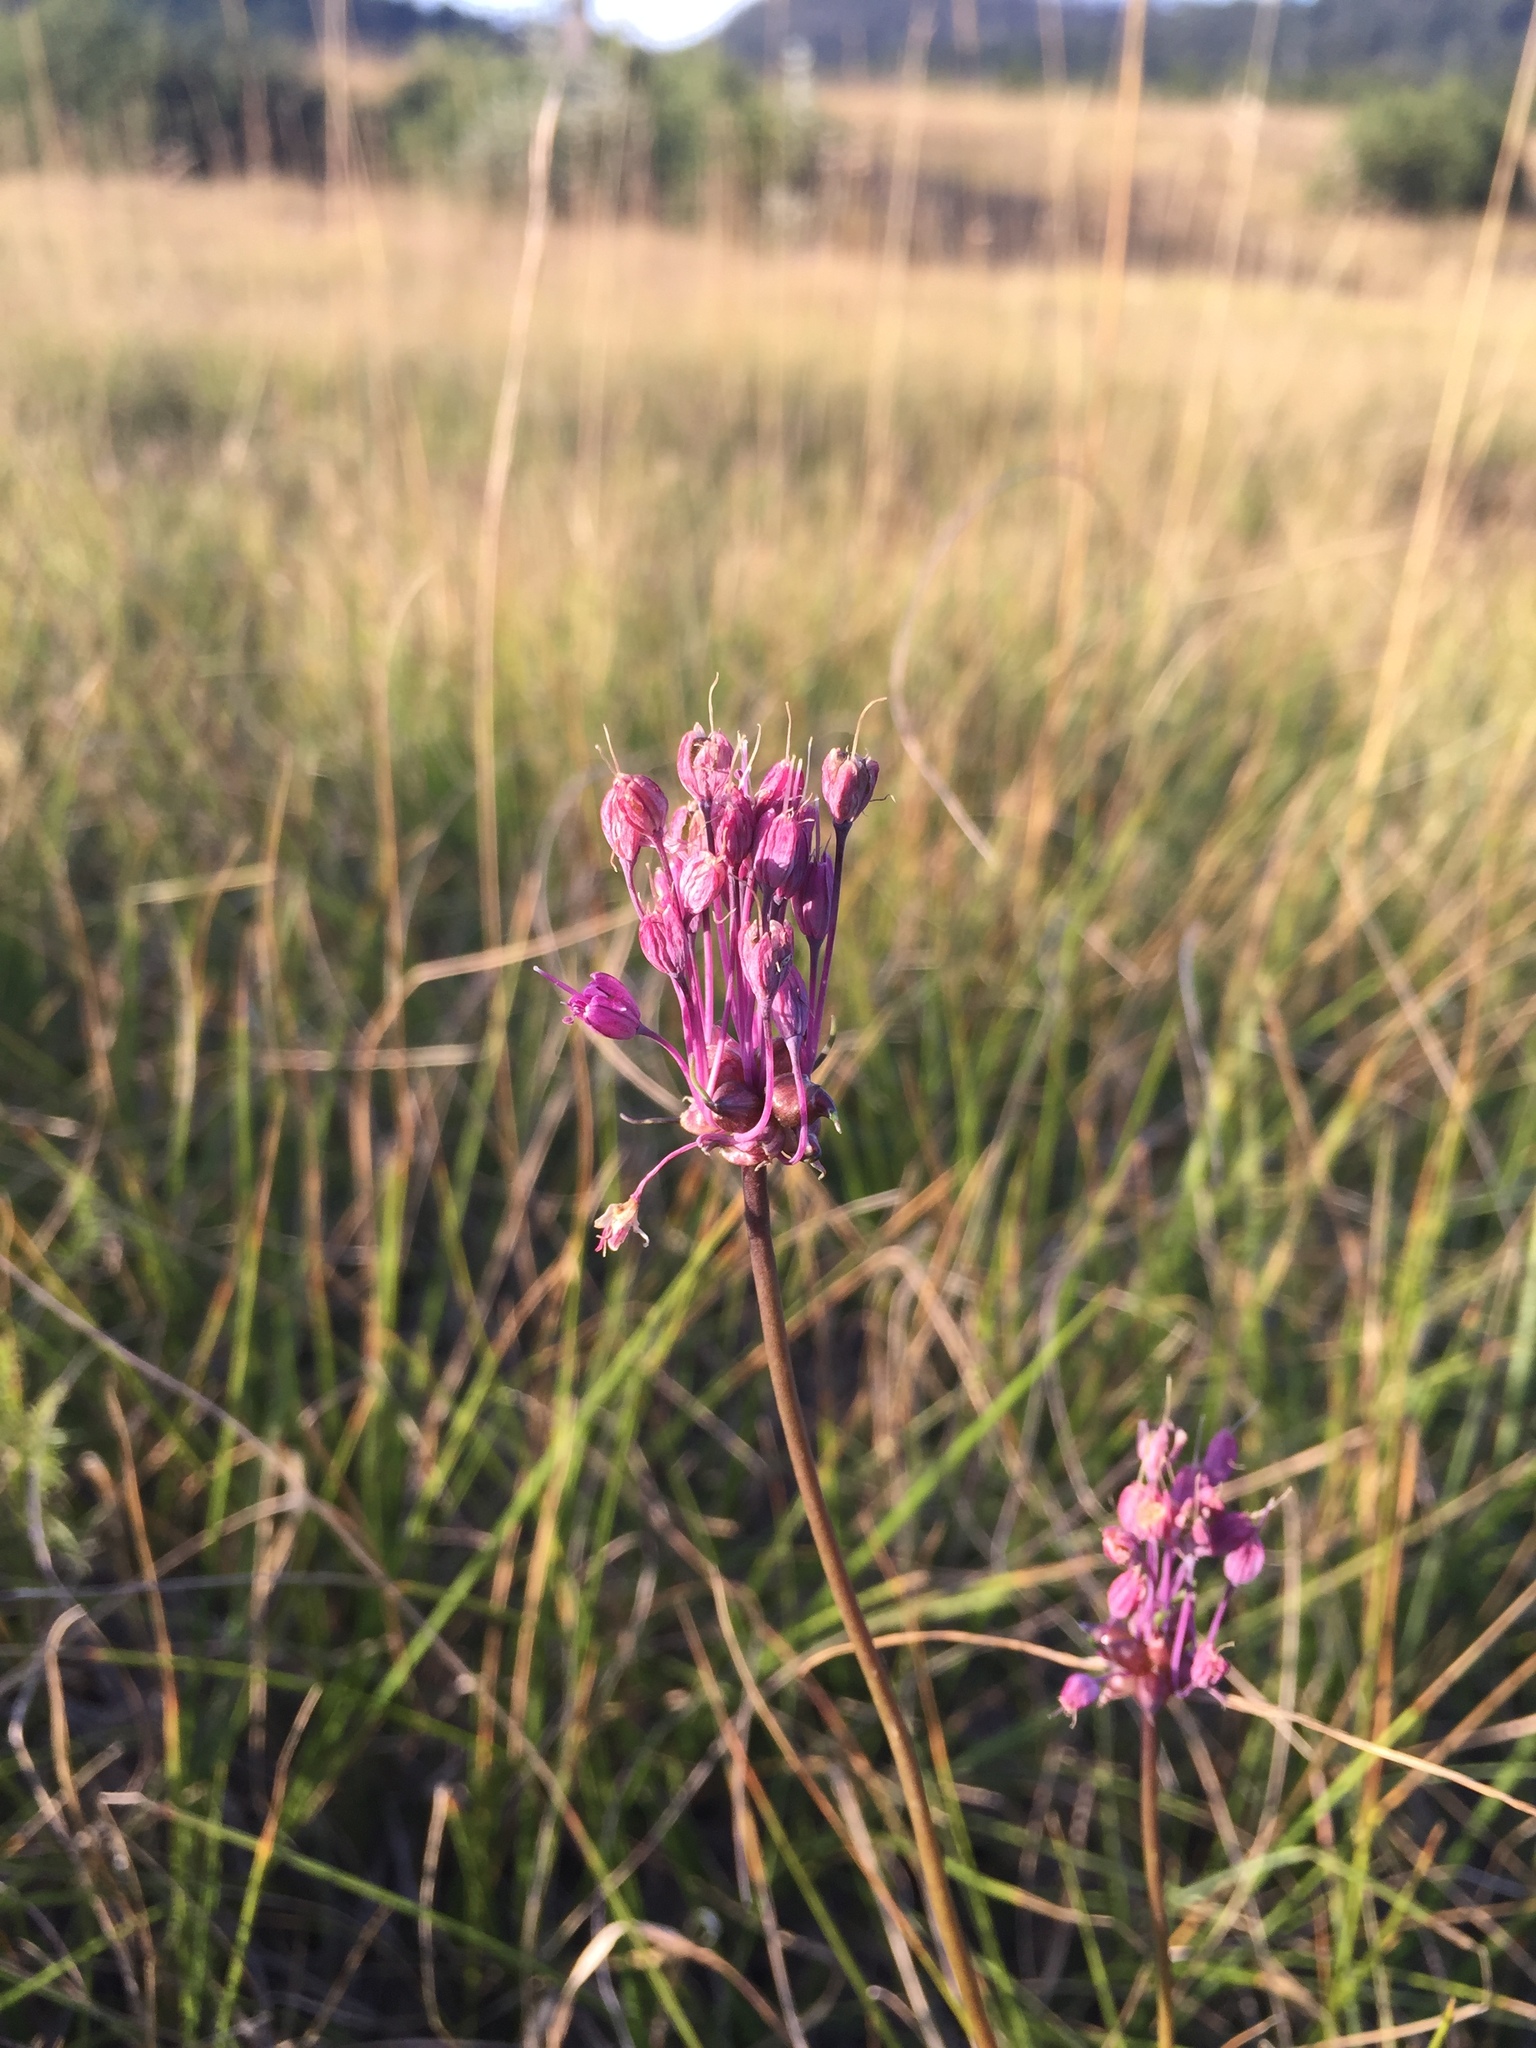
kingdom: Plantae
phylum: Tracheophyta
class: Liliopsida
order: Asparagales
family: Amaryllidaceae
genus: Allium
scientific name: Allium carinatum
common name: Keeled garlic
